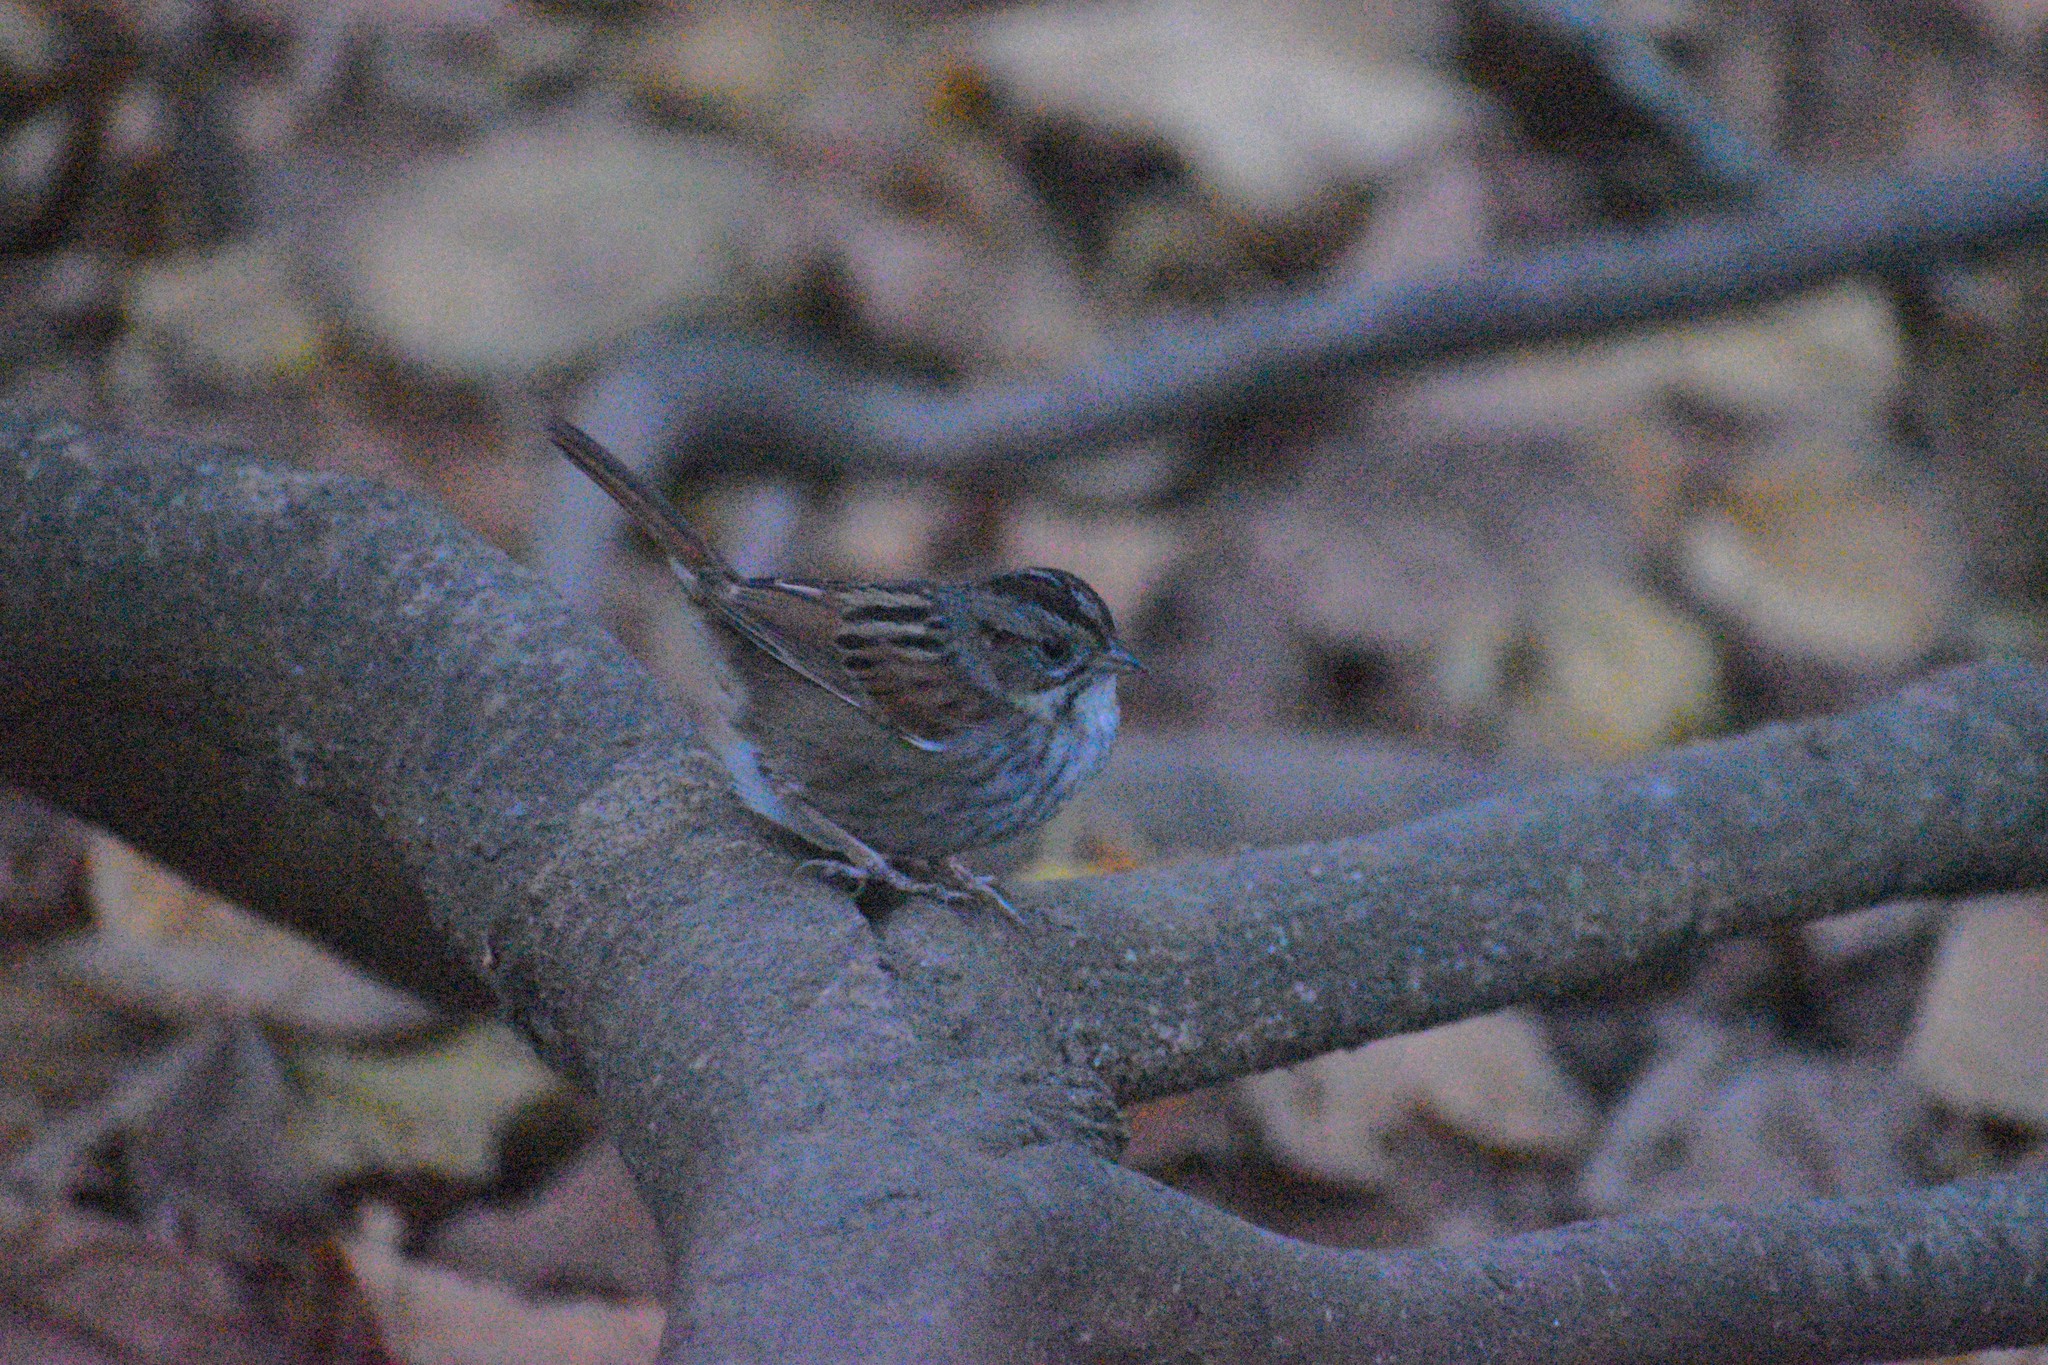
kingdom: Animalia
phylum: Chordata
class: Aves
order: Passeriformes
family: Passerellidae
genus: Melospiza
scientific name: Melospiza georgiana
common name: Swamp sparrow
